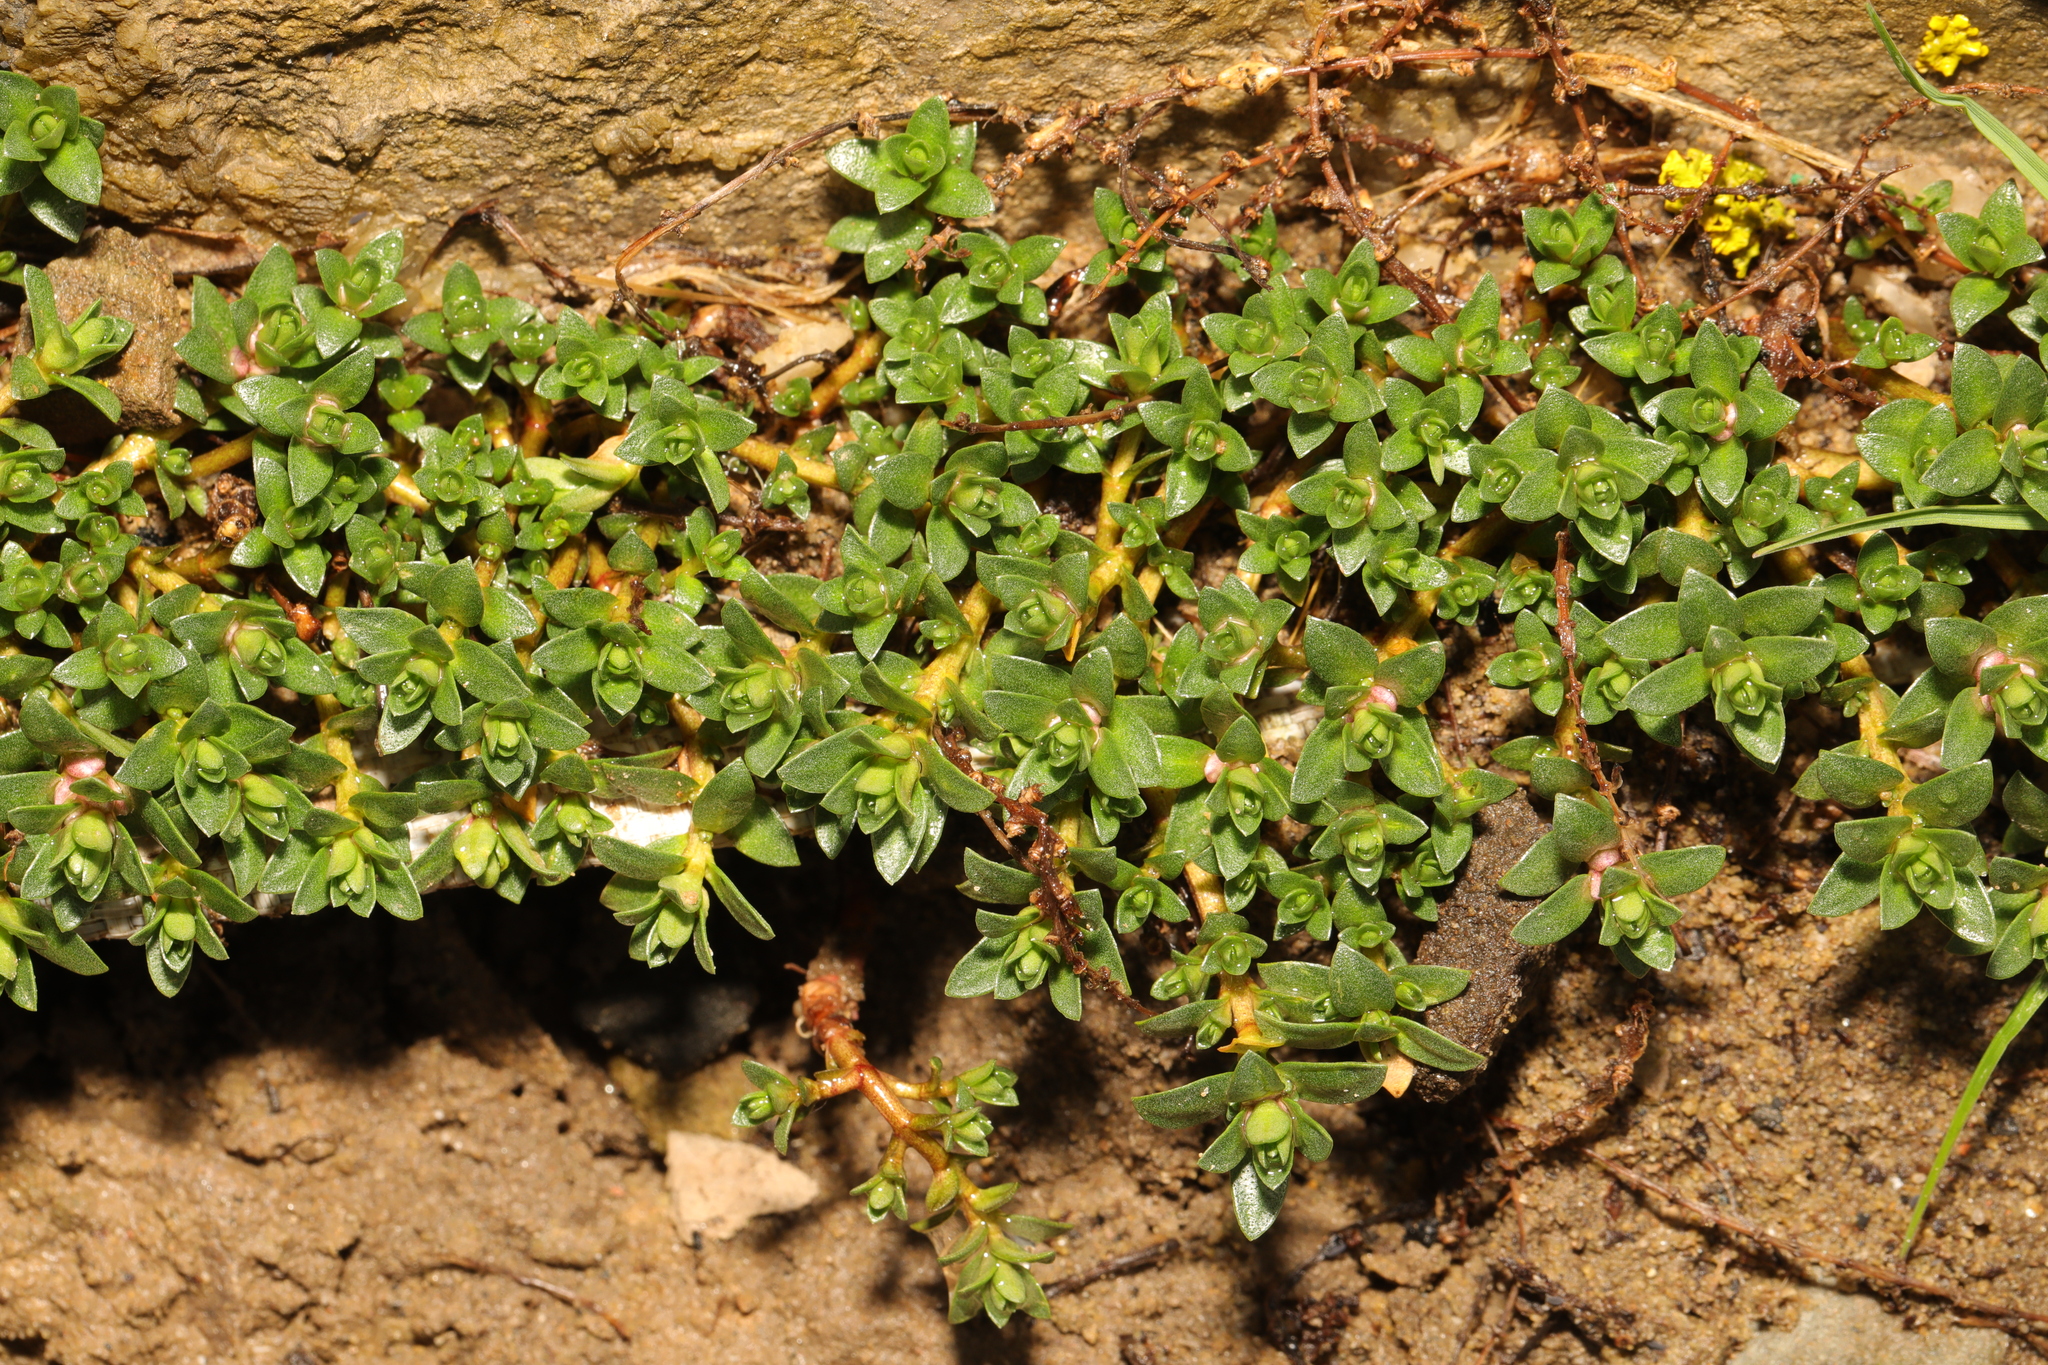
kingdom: Plantae
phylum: Tracheophyta
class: Magnoliopsida
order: Ericales
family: Primulaceae
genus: Lysimachia
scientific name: Lysimachia maritima
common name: Sea milkwort
